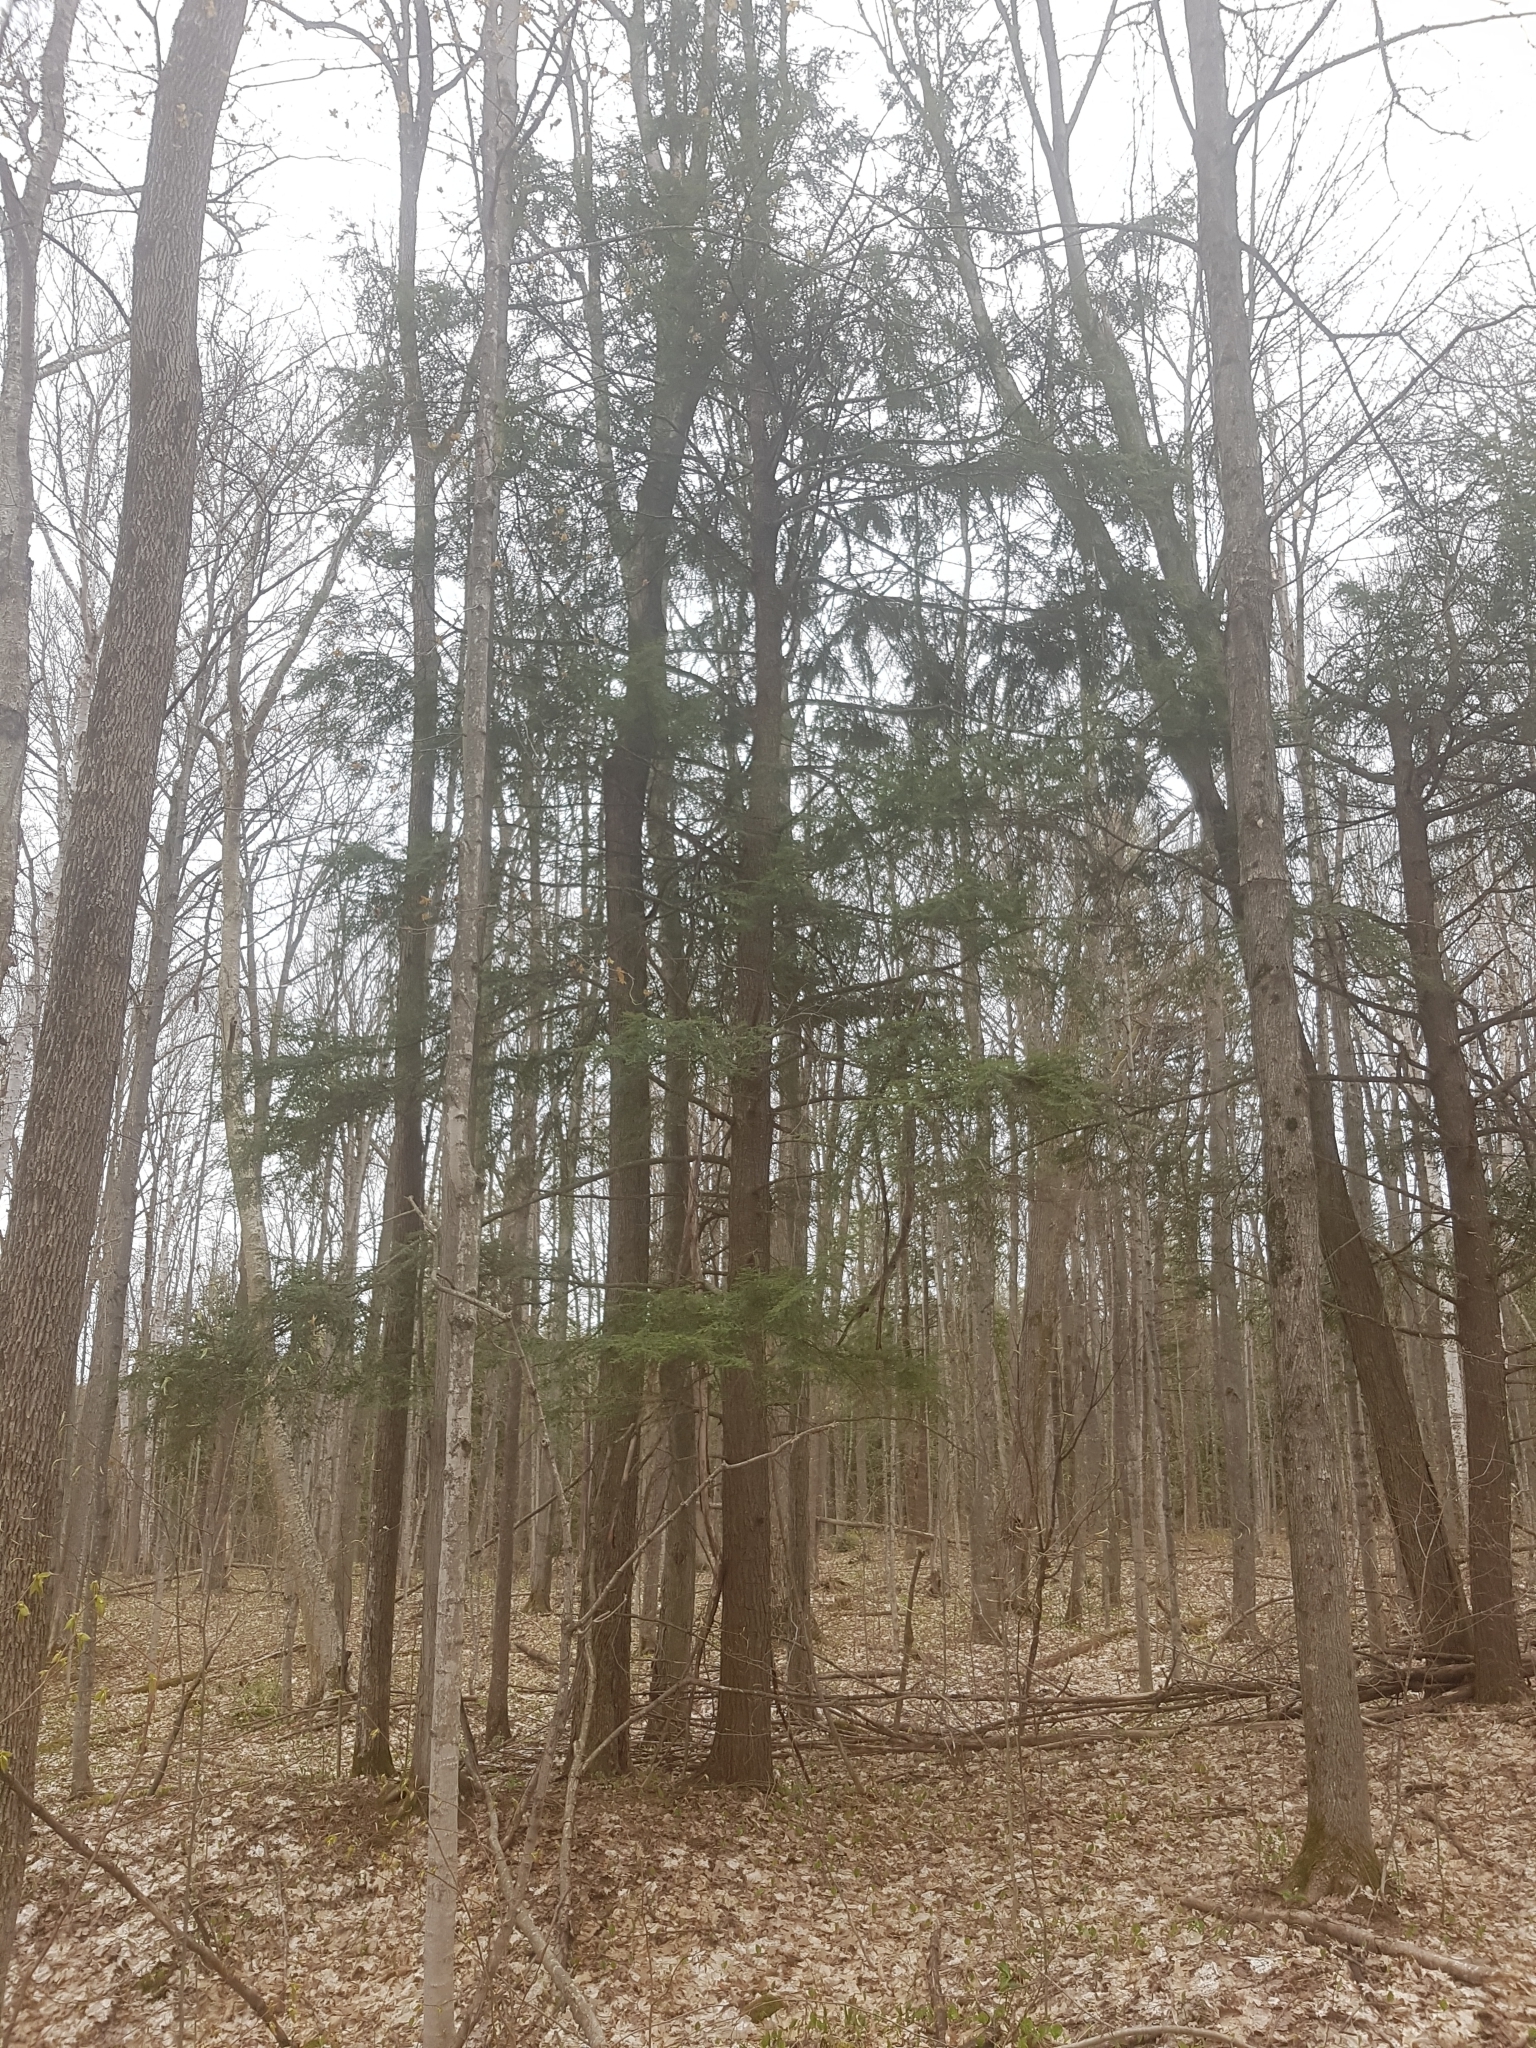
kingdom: Plantae
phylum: Tracheophyta
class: Pinopsida
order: Pinales
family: Pinaceae
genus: Tsuga
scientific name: Tsuga canadensis
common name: Eastern hemlock
